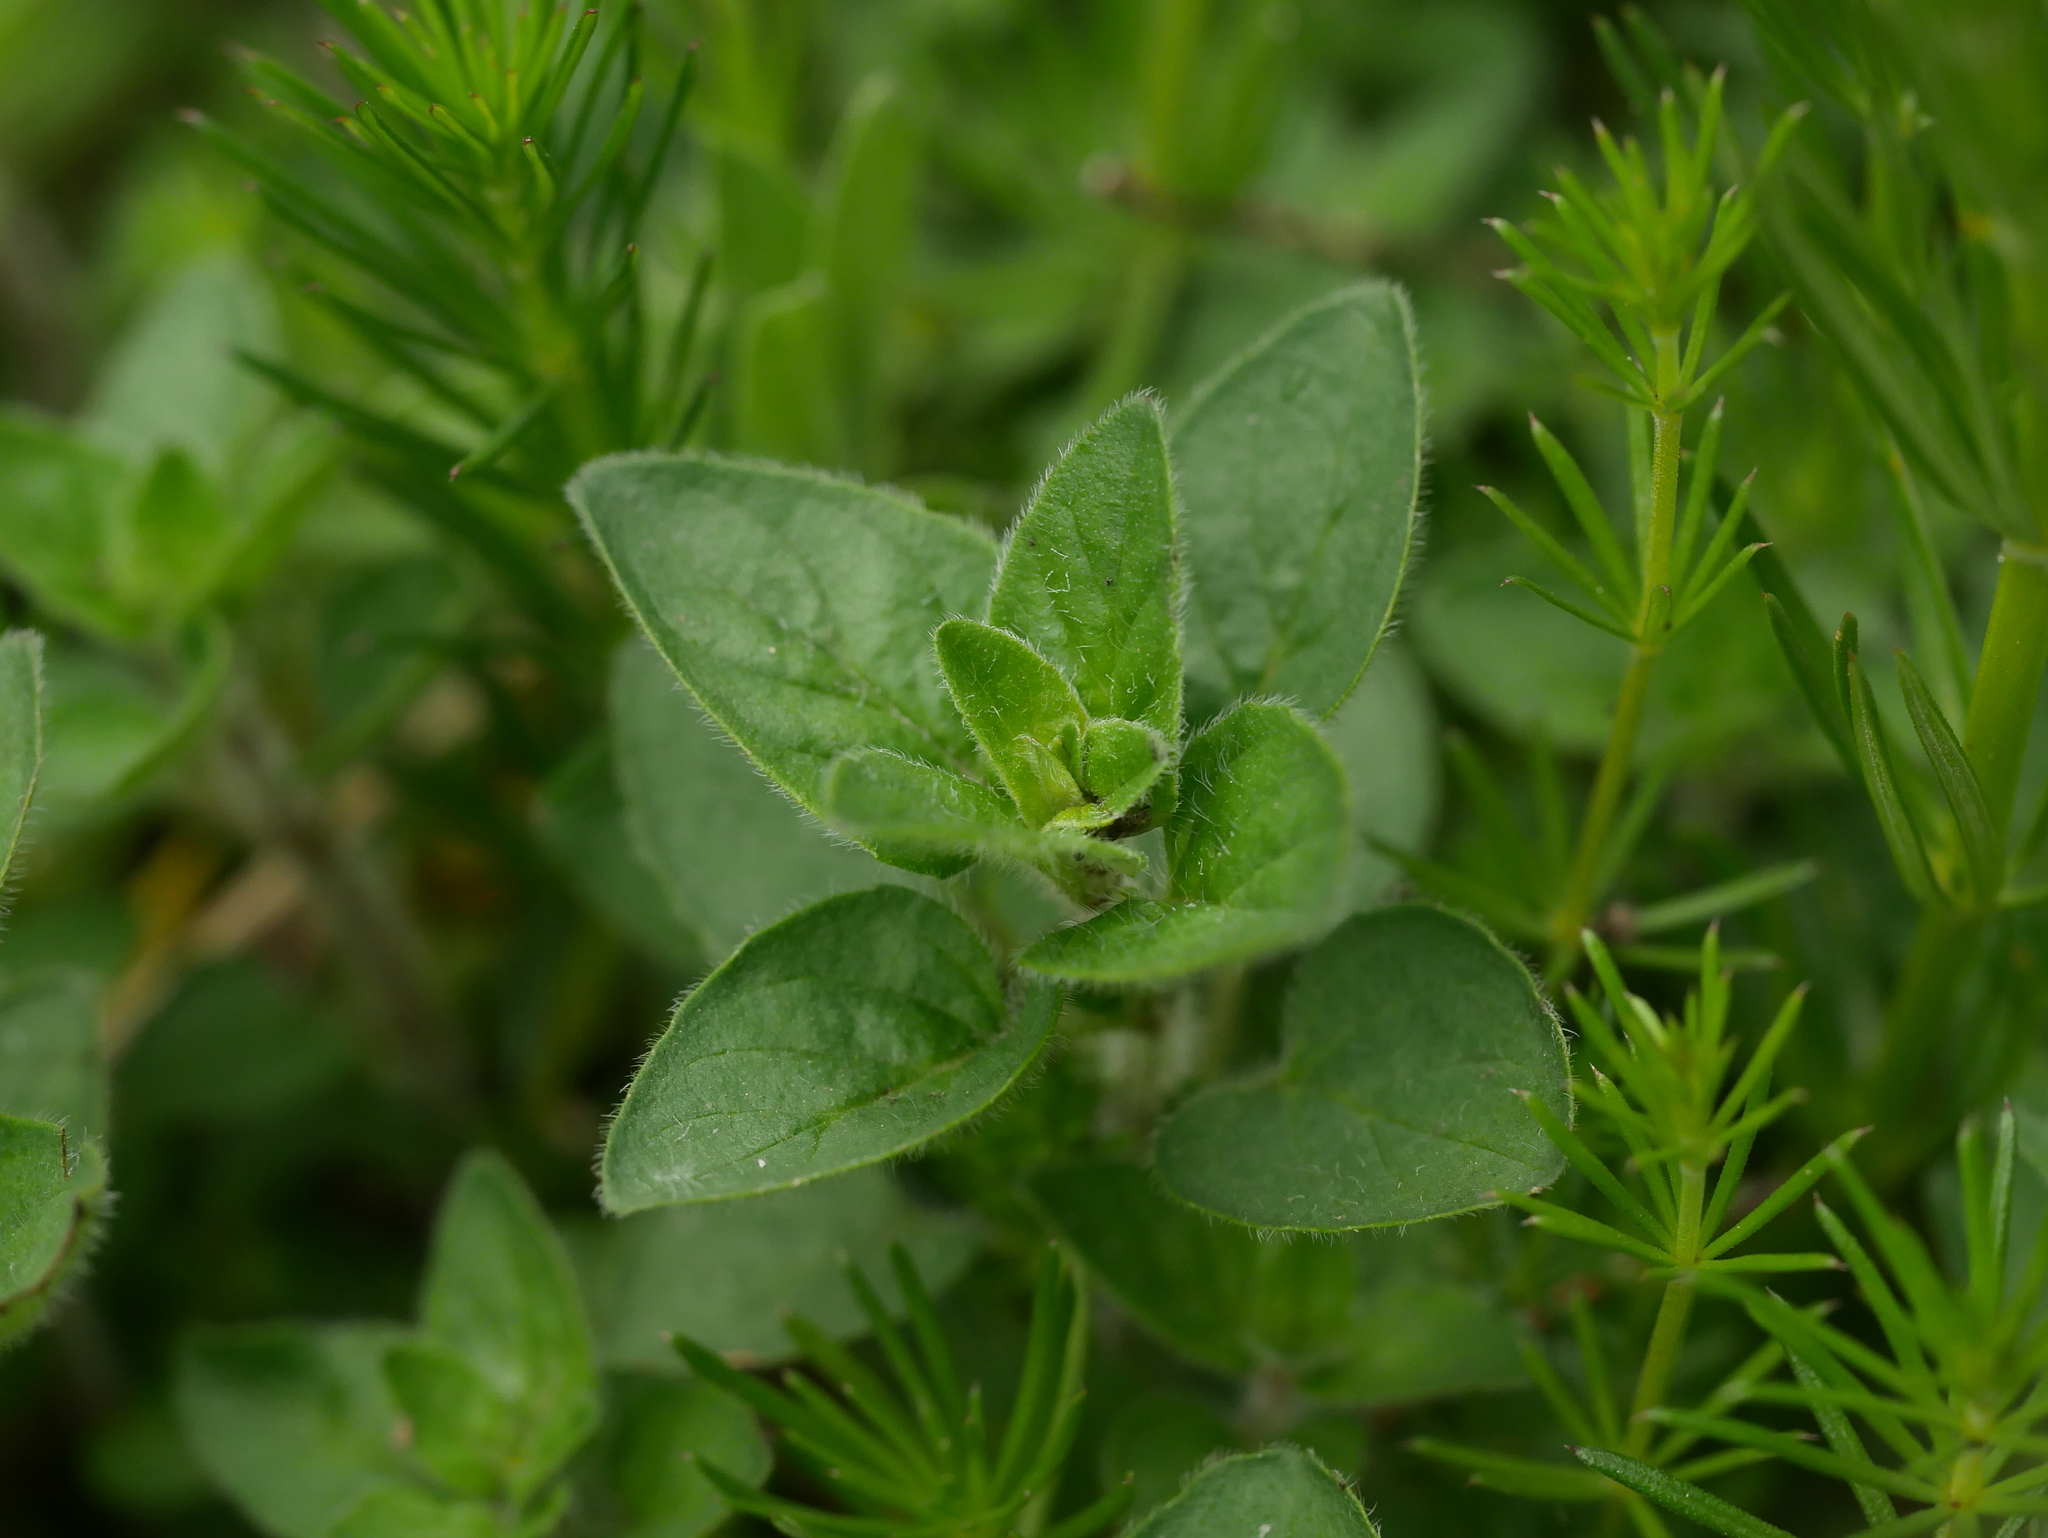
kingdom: Plantae
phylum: Tracheophyta
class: Magnoliopsida
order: Lamiales
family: Lamiaceae
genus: Origanum
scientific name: Origanum vulgare
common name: Wild marjoram
